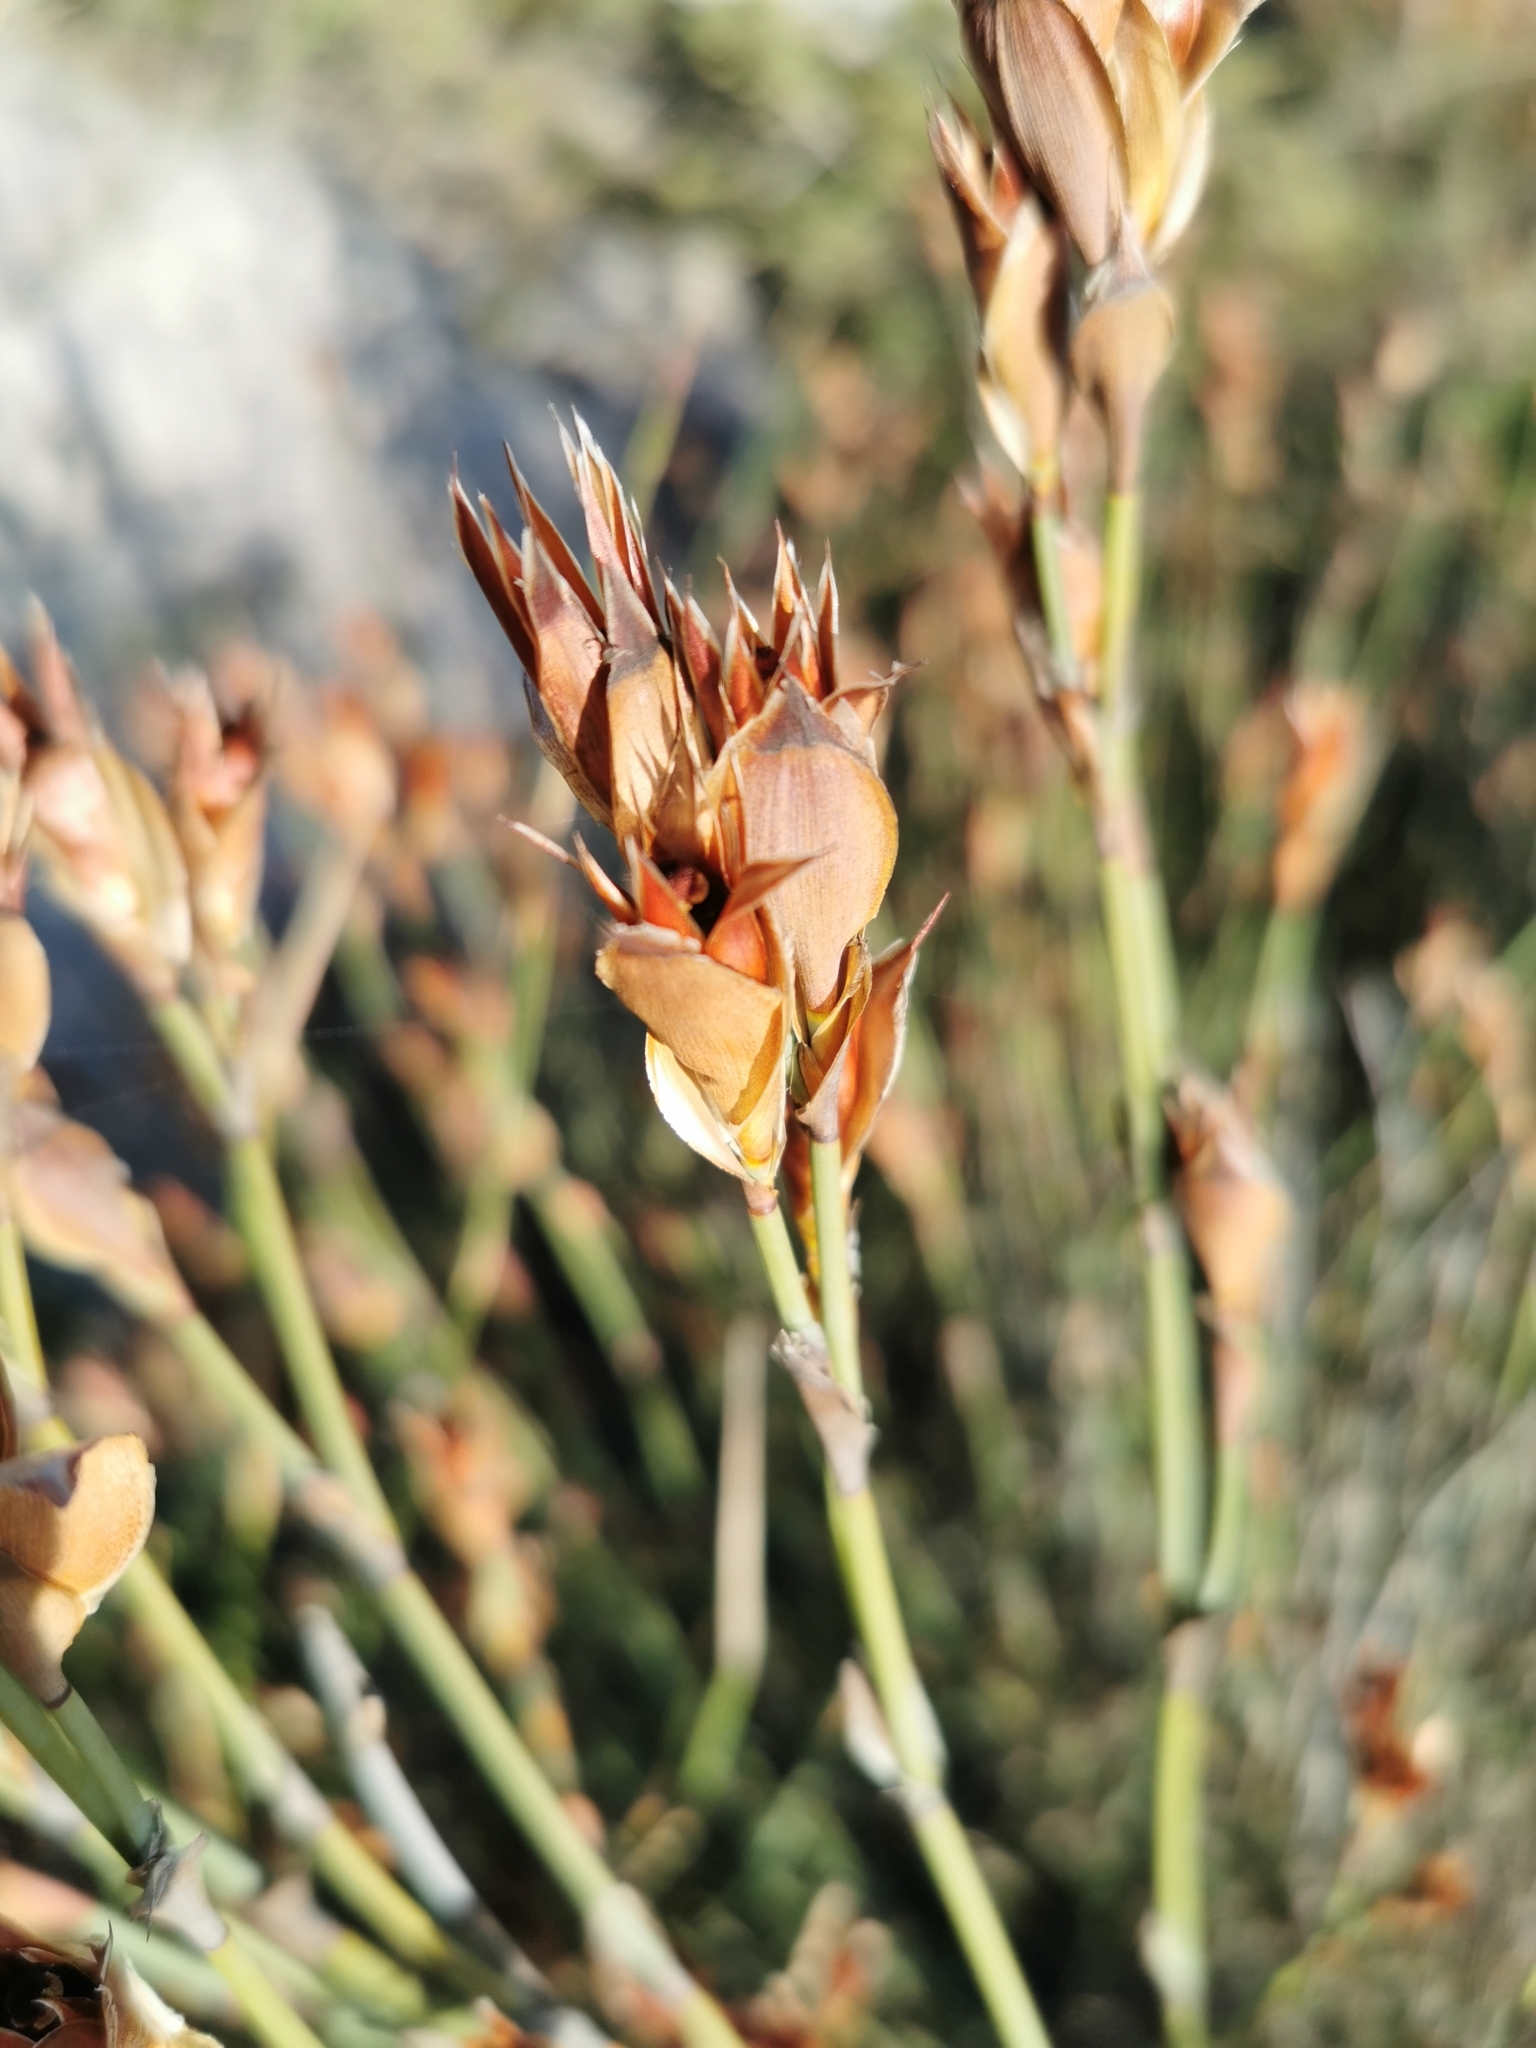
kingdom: Plantae
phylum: Tracheophyta
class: Liliopsida
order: Poales
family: Restionaceae
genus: Willdenowia
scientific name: Willdenowia incurvata
